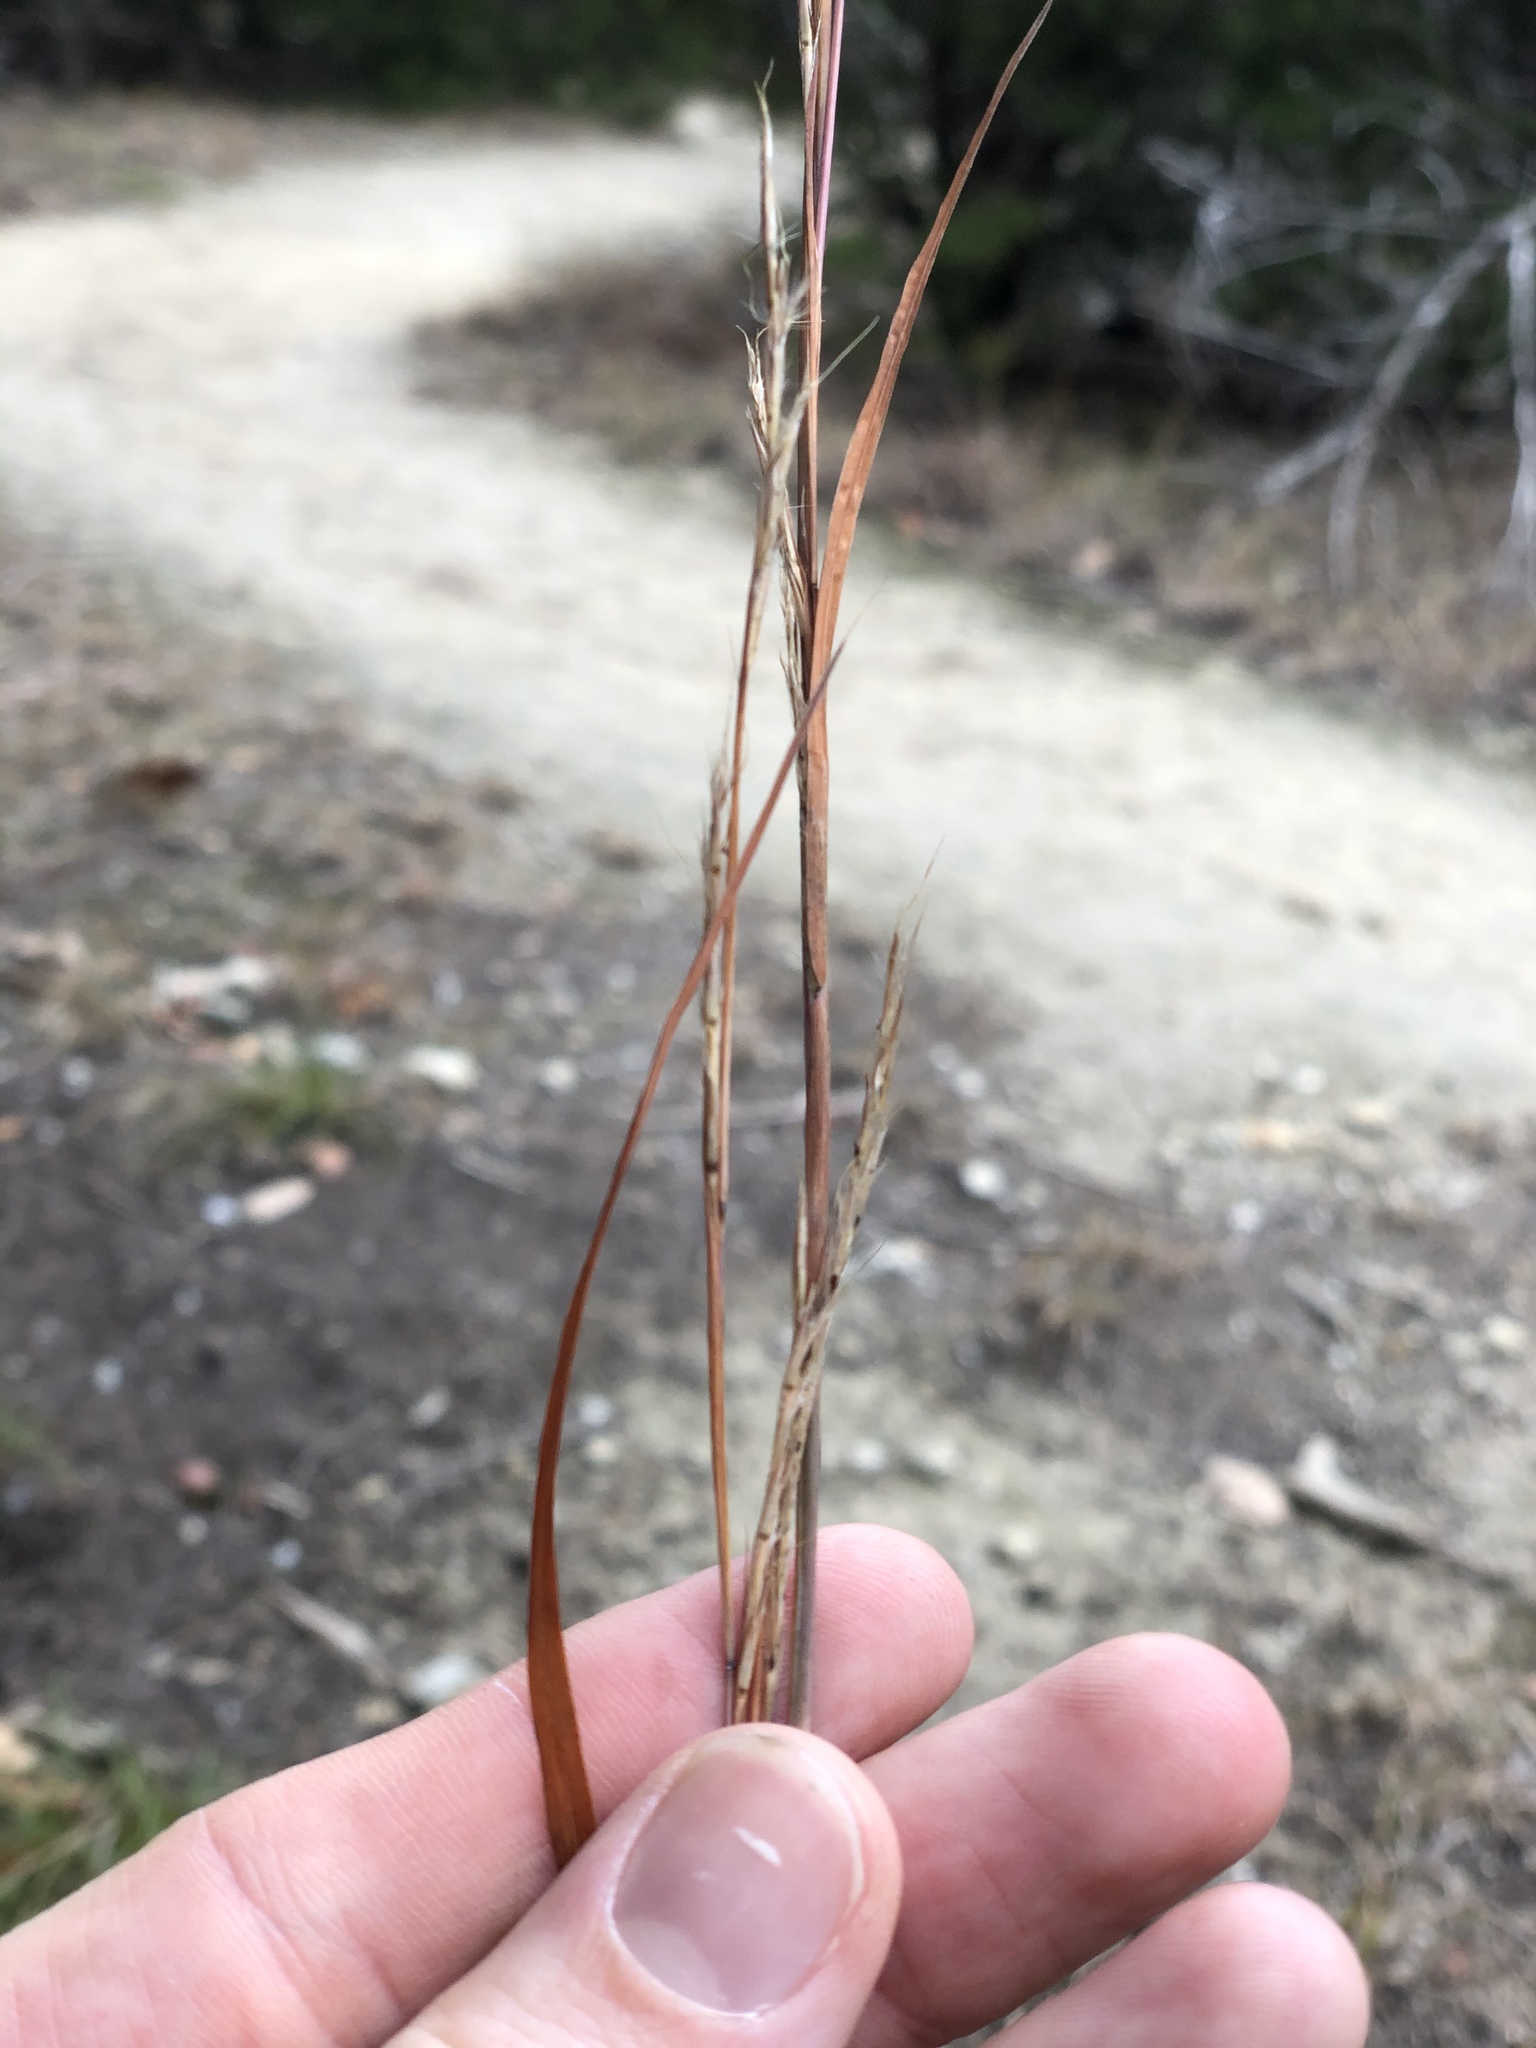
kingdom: Plantae
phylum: Tracheophyta
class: Liliopsida
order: Poales
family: Poaceae
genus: Schizachyrium
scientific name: Schizachyrium scoparium
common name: Little bluestem
